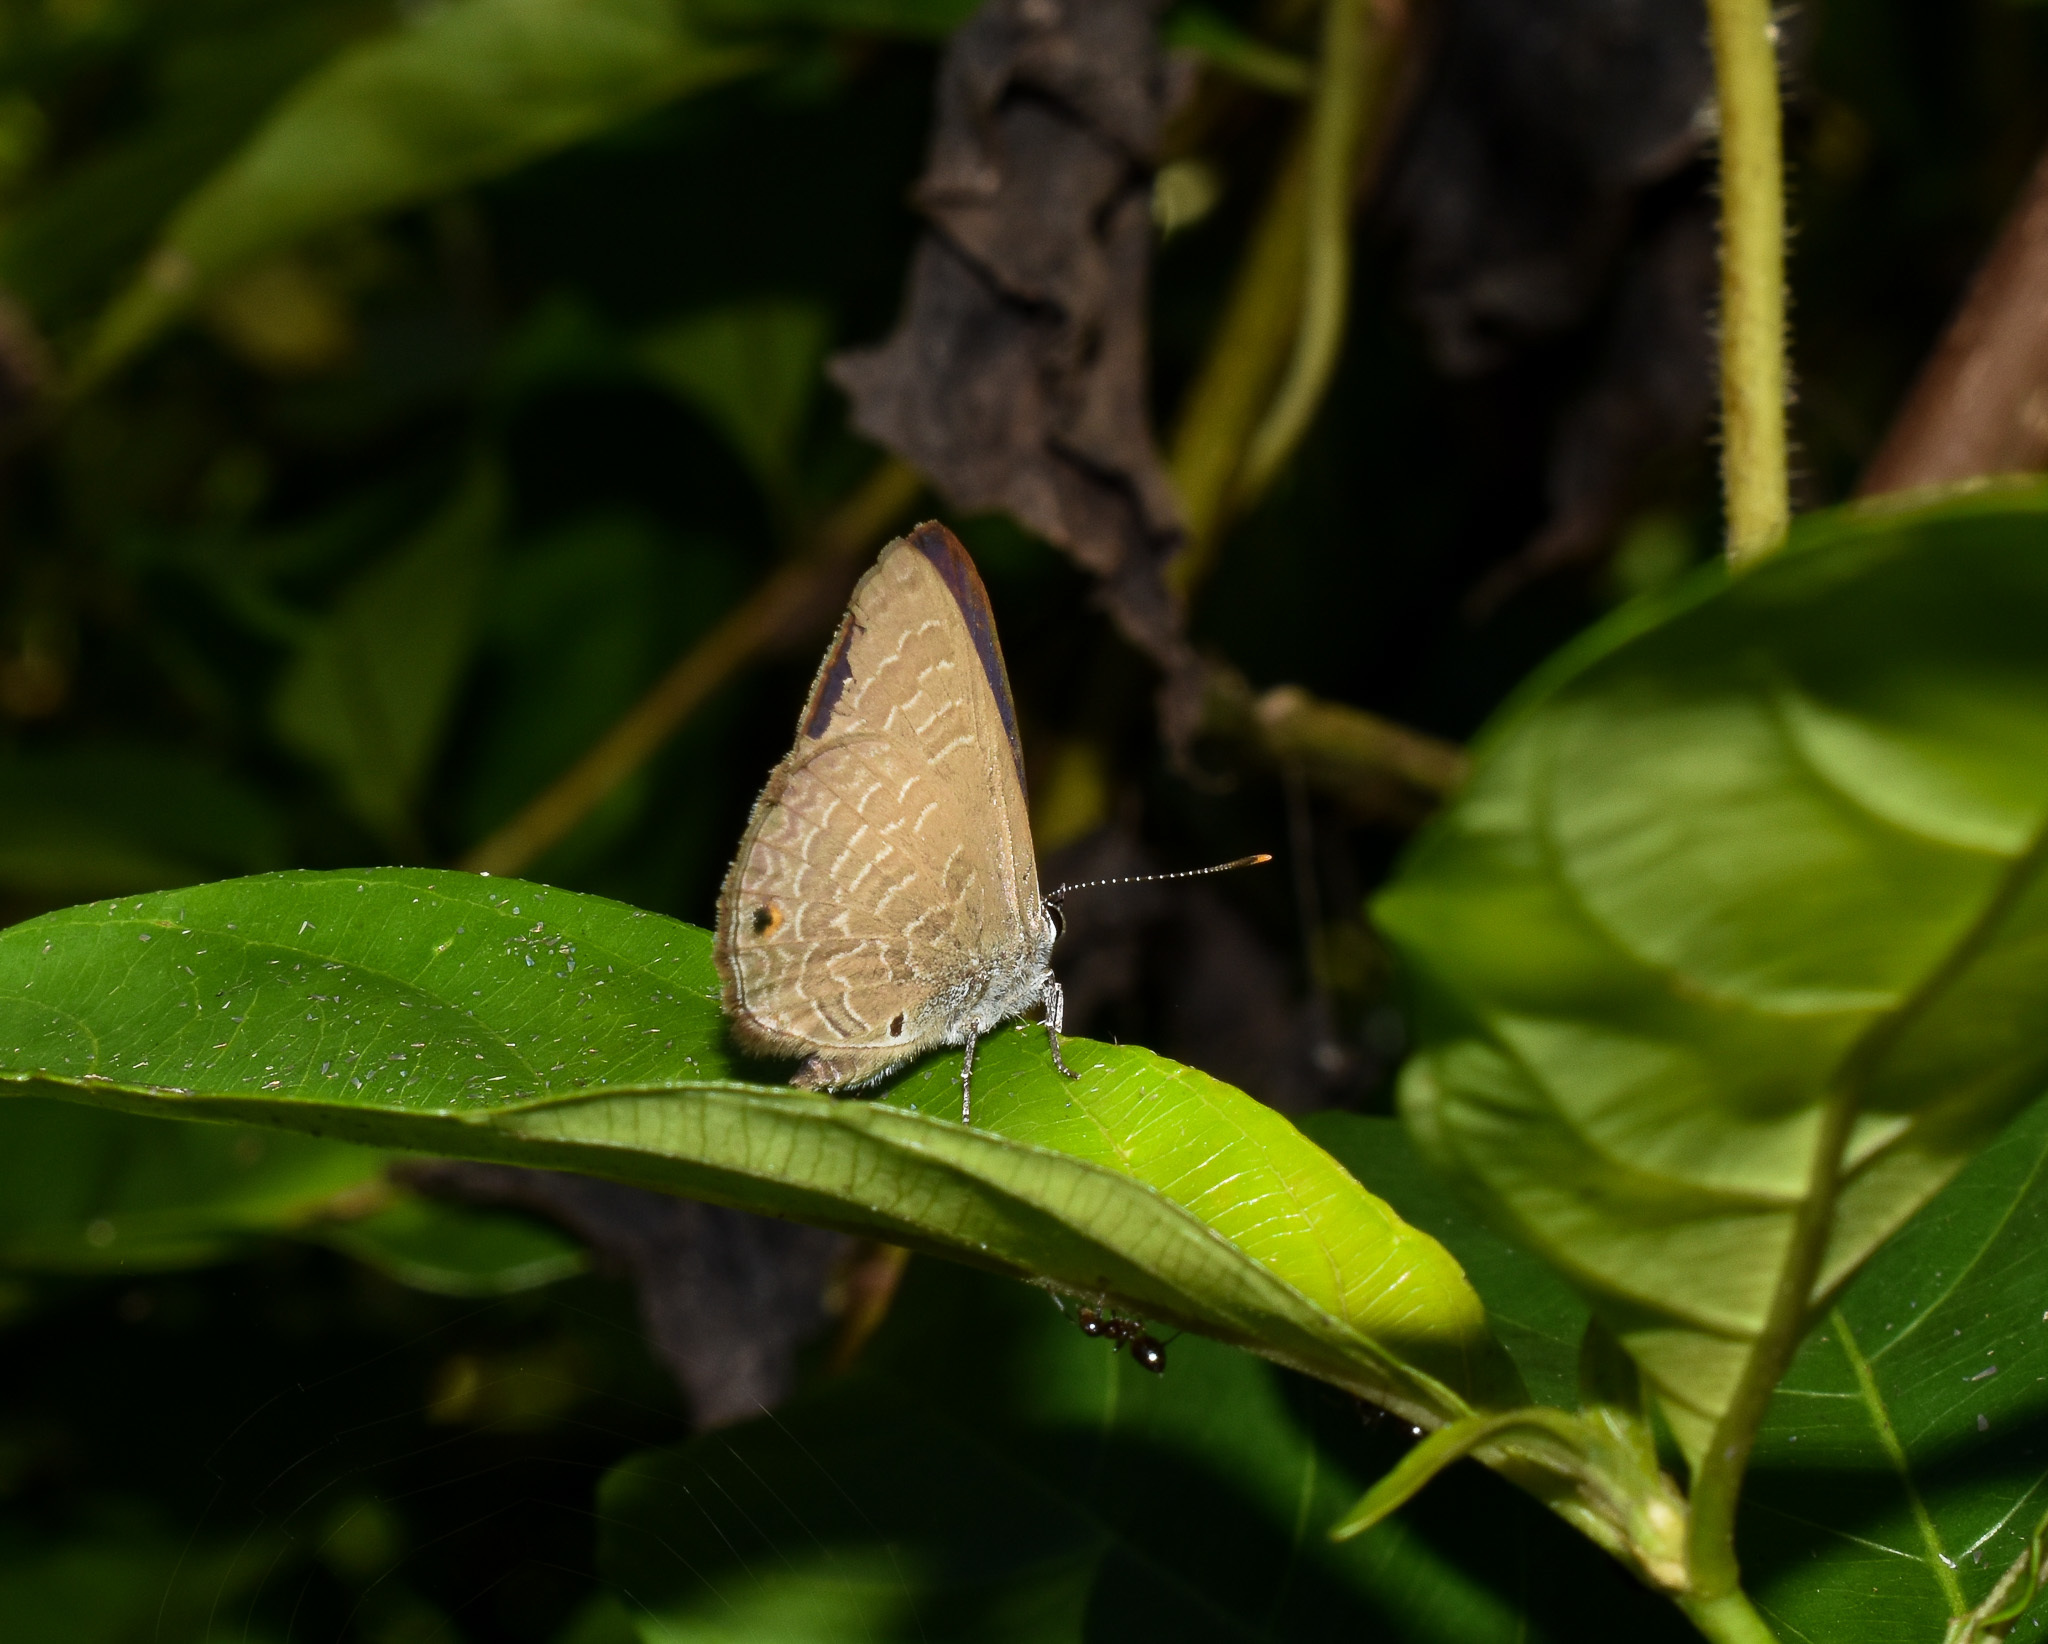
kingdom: Animalia
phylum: Arthropoda
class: Insecta
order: Lepidoptera
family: Lycaenidae
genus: Anthene
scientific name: Anthene emolus
